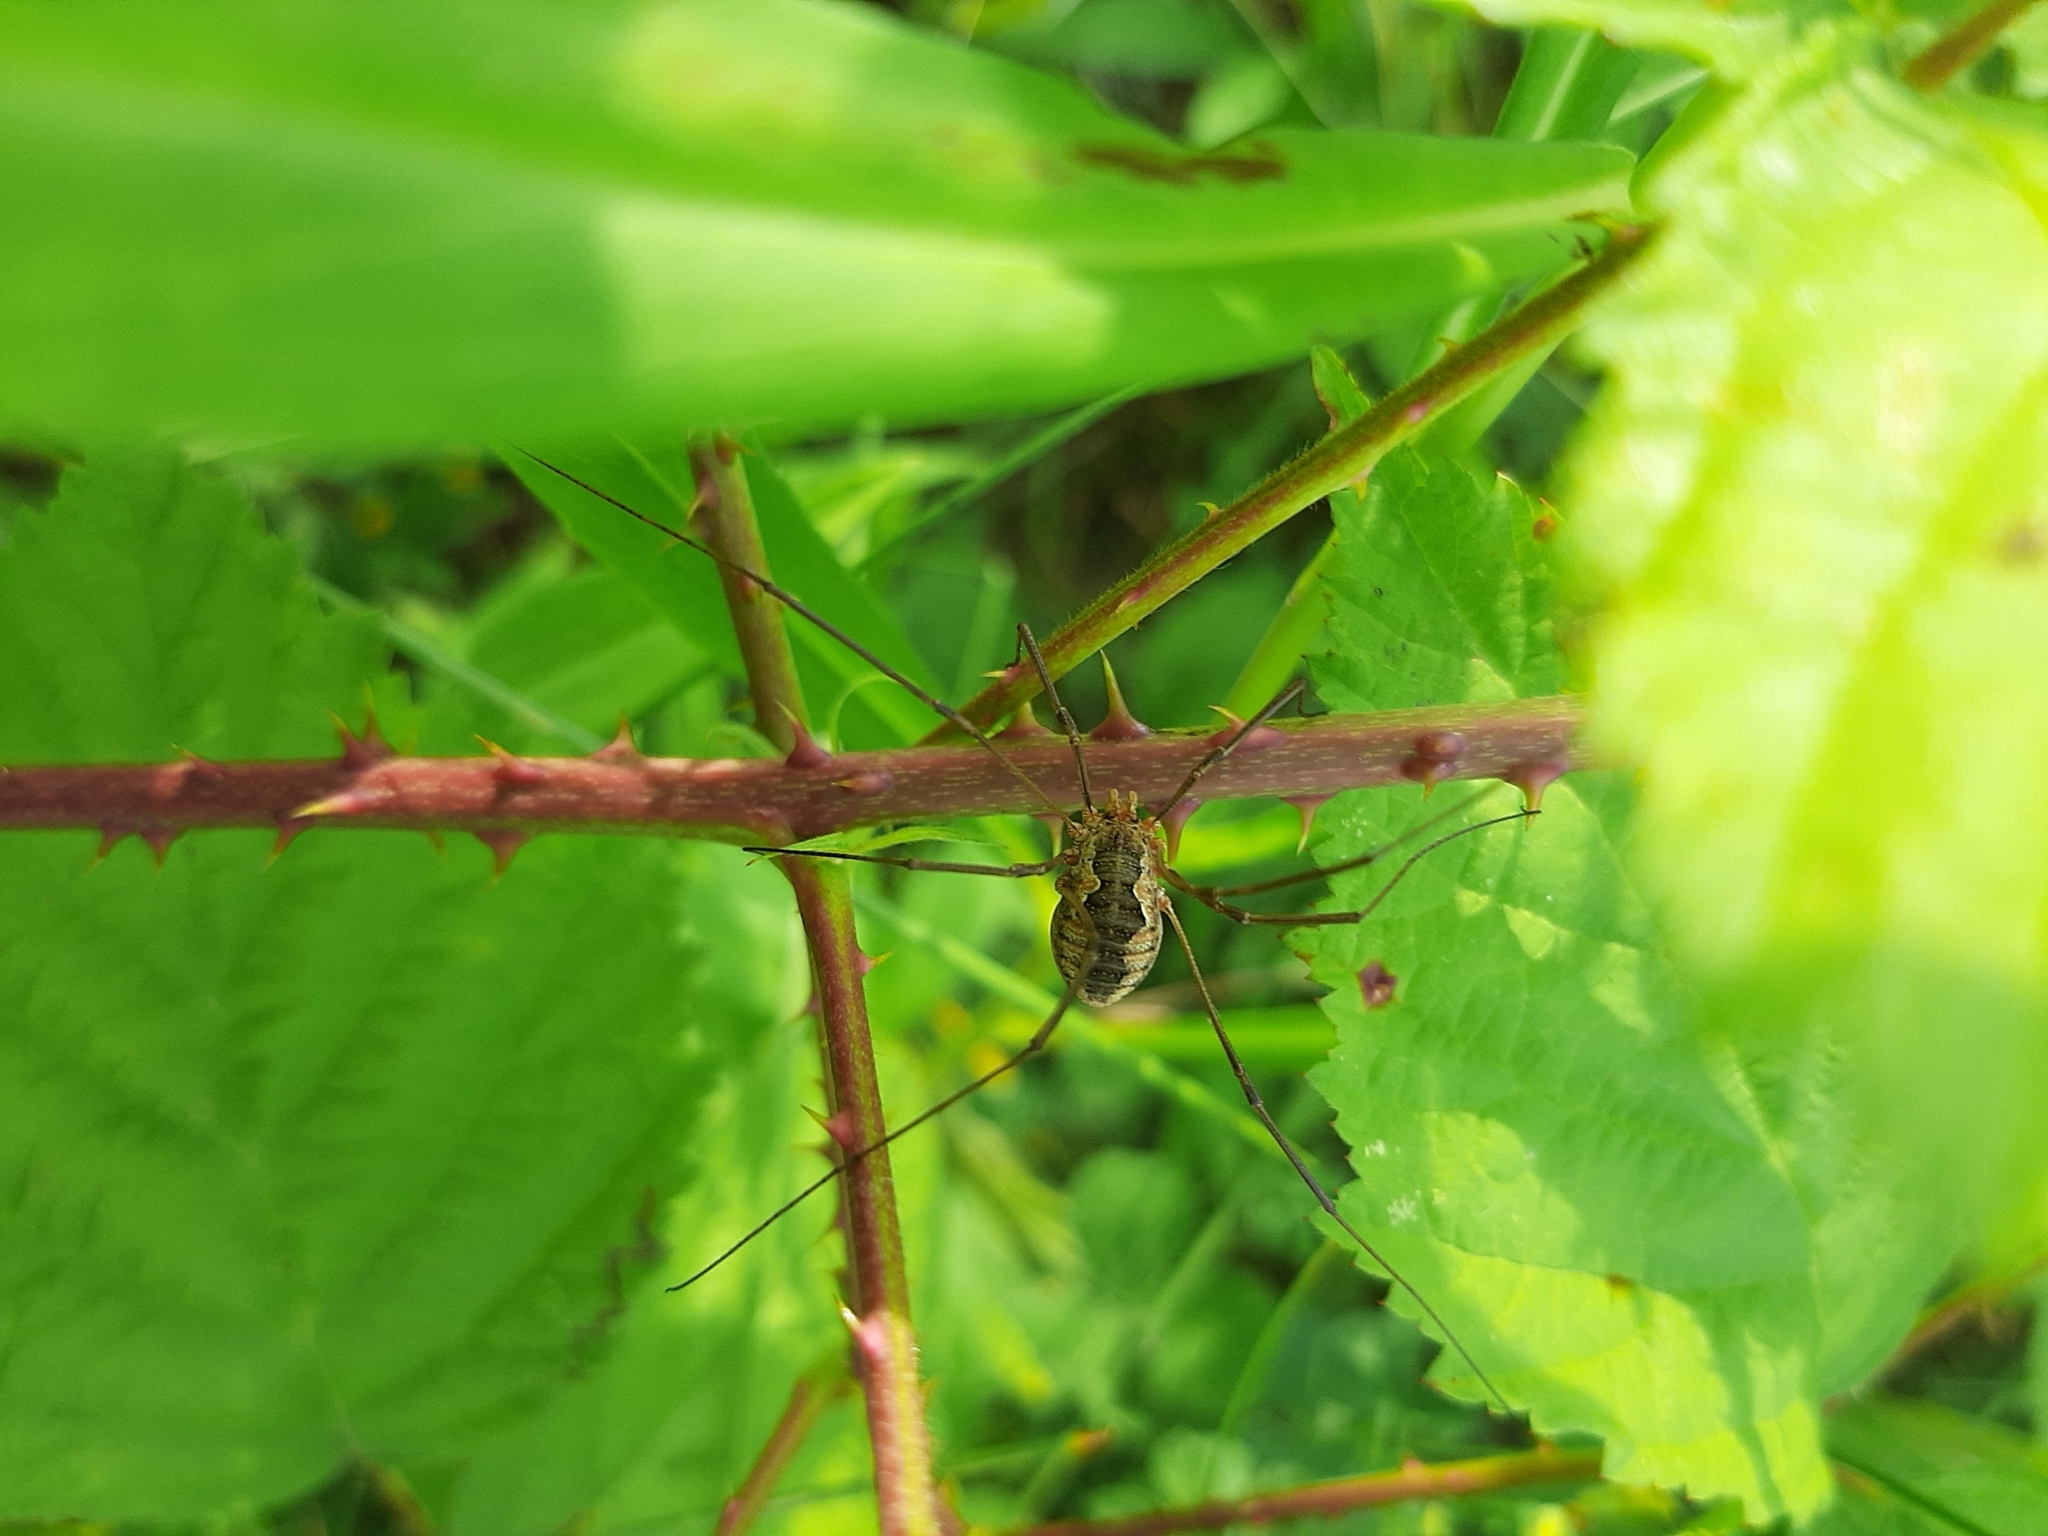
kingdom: Animalia
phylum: Arthropoda
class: Arachnida
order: Opiliones
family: Phalangiidae
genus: Phalangium
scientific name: Phalangium opilio
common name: Daddy longleg
